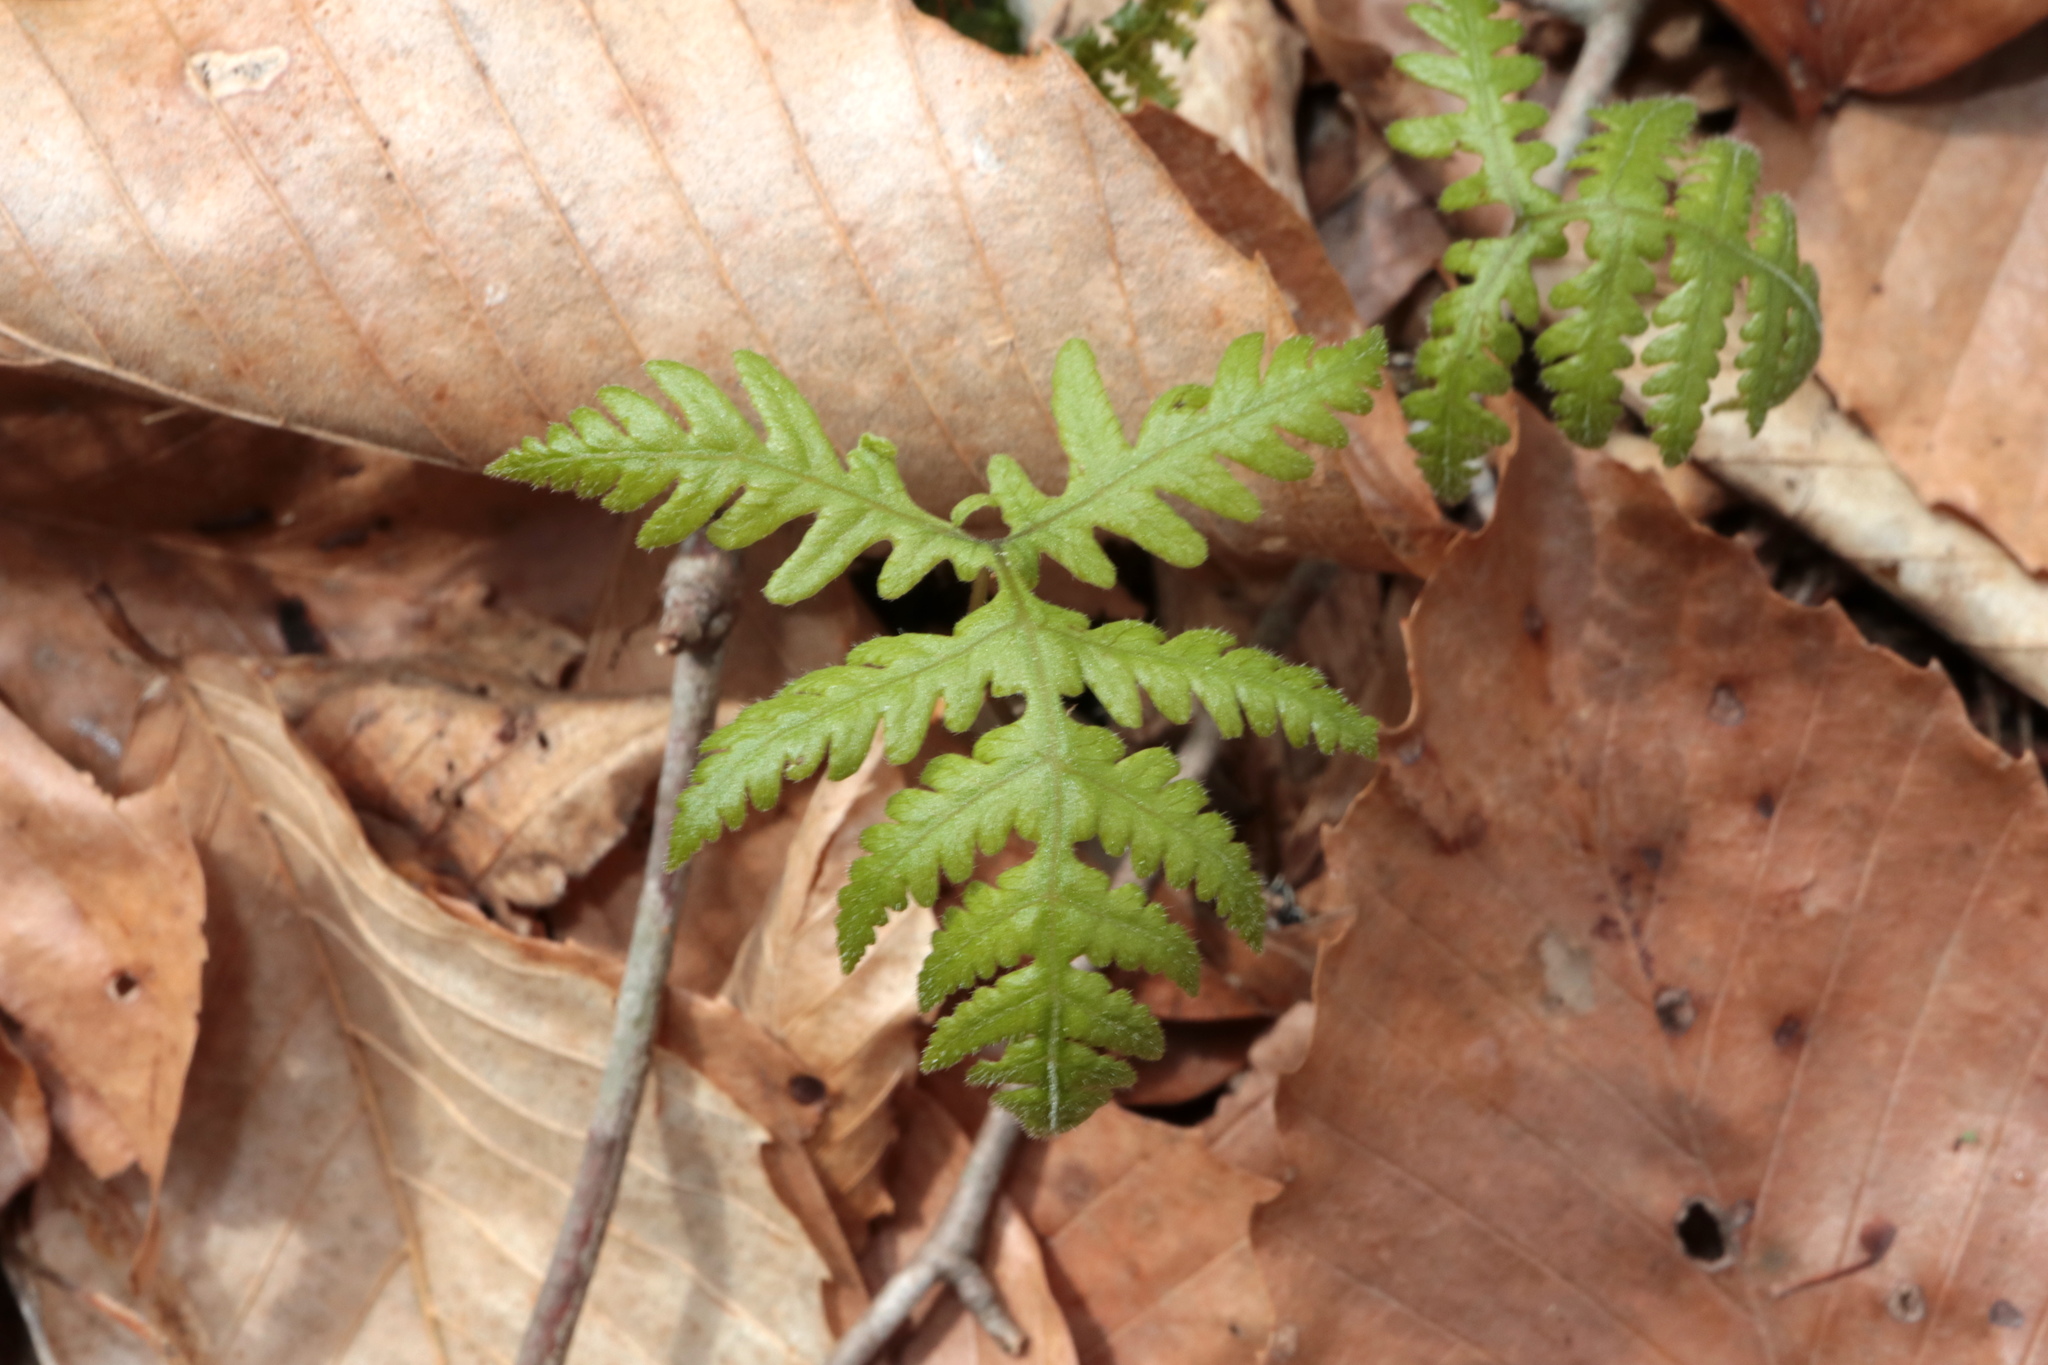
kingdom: Plantae
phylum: Tracheophyta
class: Polypodiopsida
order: Polypodiales
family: Thelypteridaceae
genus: Phegopteris
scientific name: Phegopteris hexagonoptera
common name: Broad beech fern
